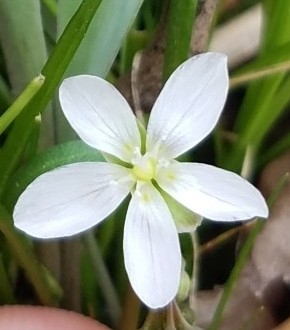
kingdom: Plantae
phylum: Tracheophyta
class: Magnoliopsida
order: Caryophyllales
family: Montiaceae
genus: Claytonia
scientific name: Claytonia virginica
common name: Virginia springbeauty
